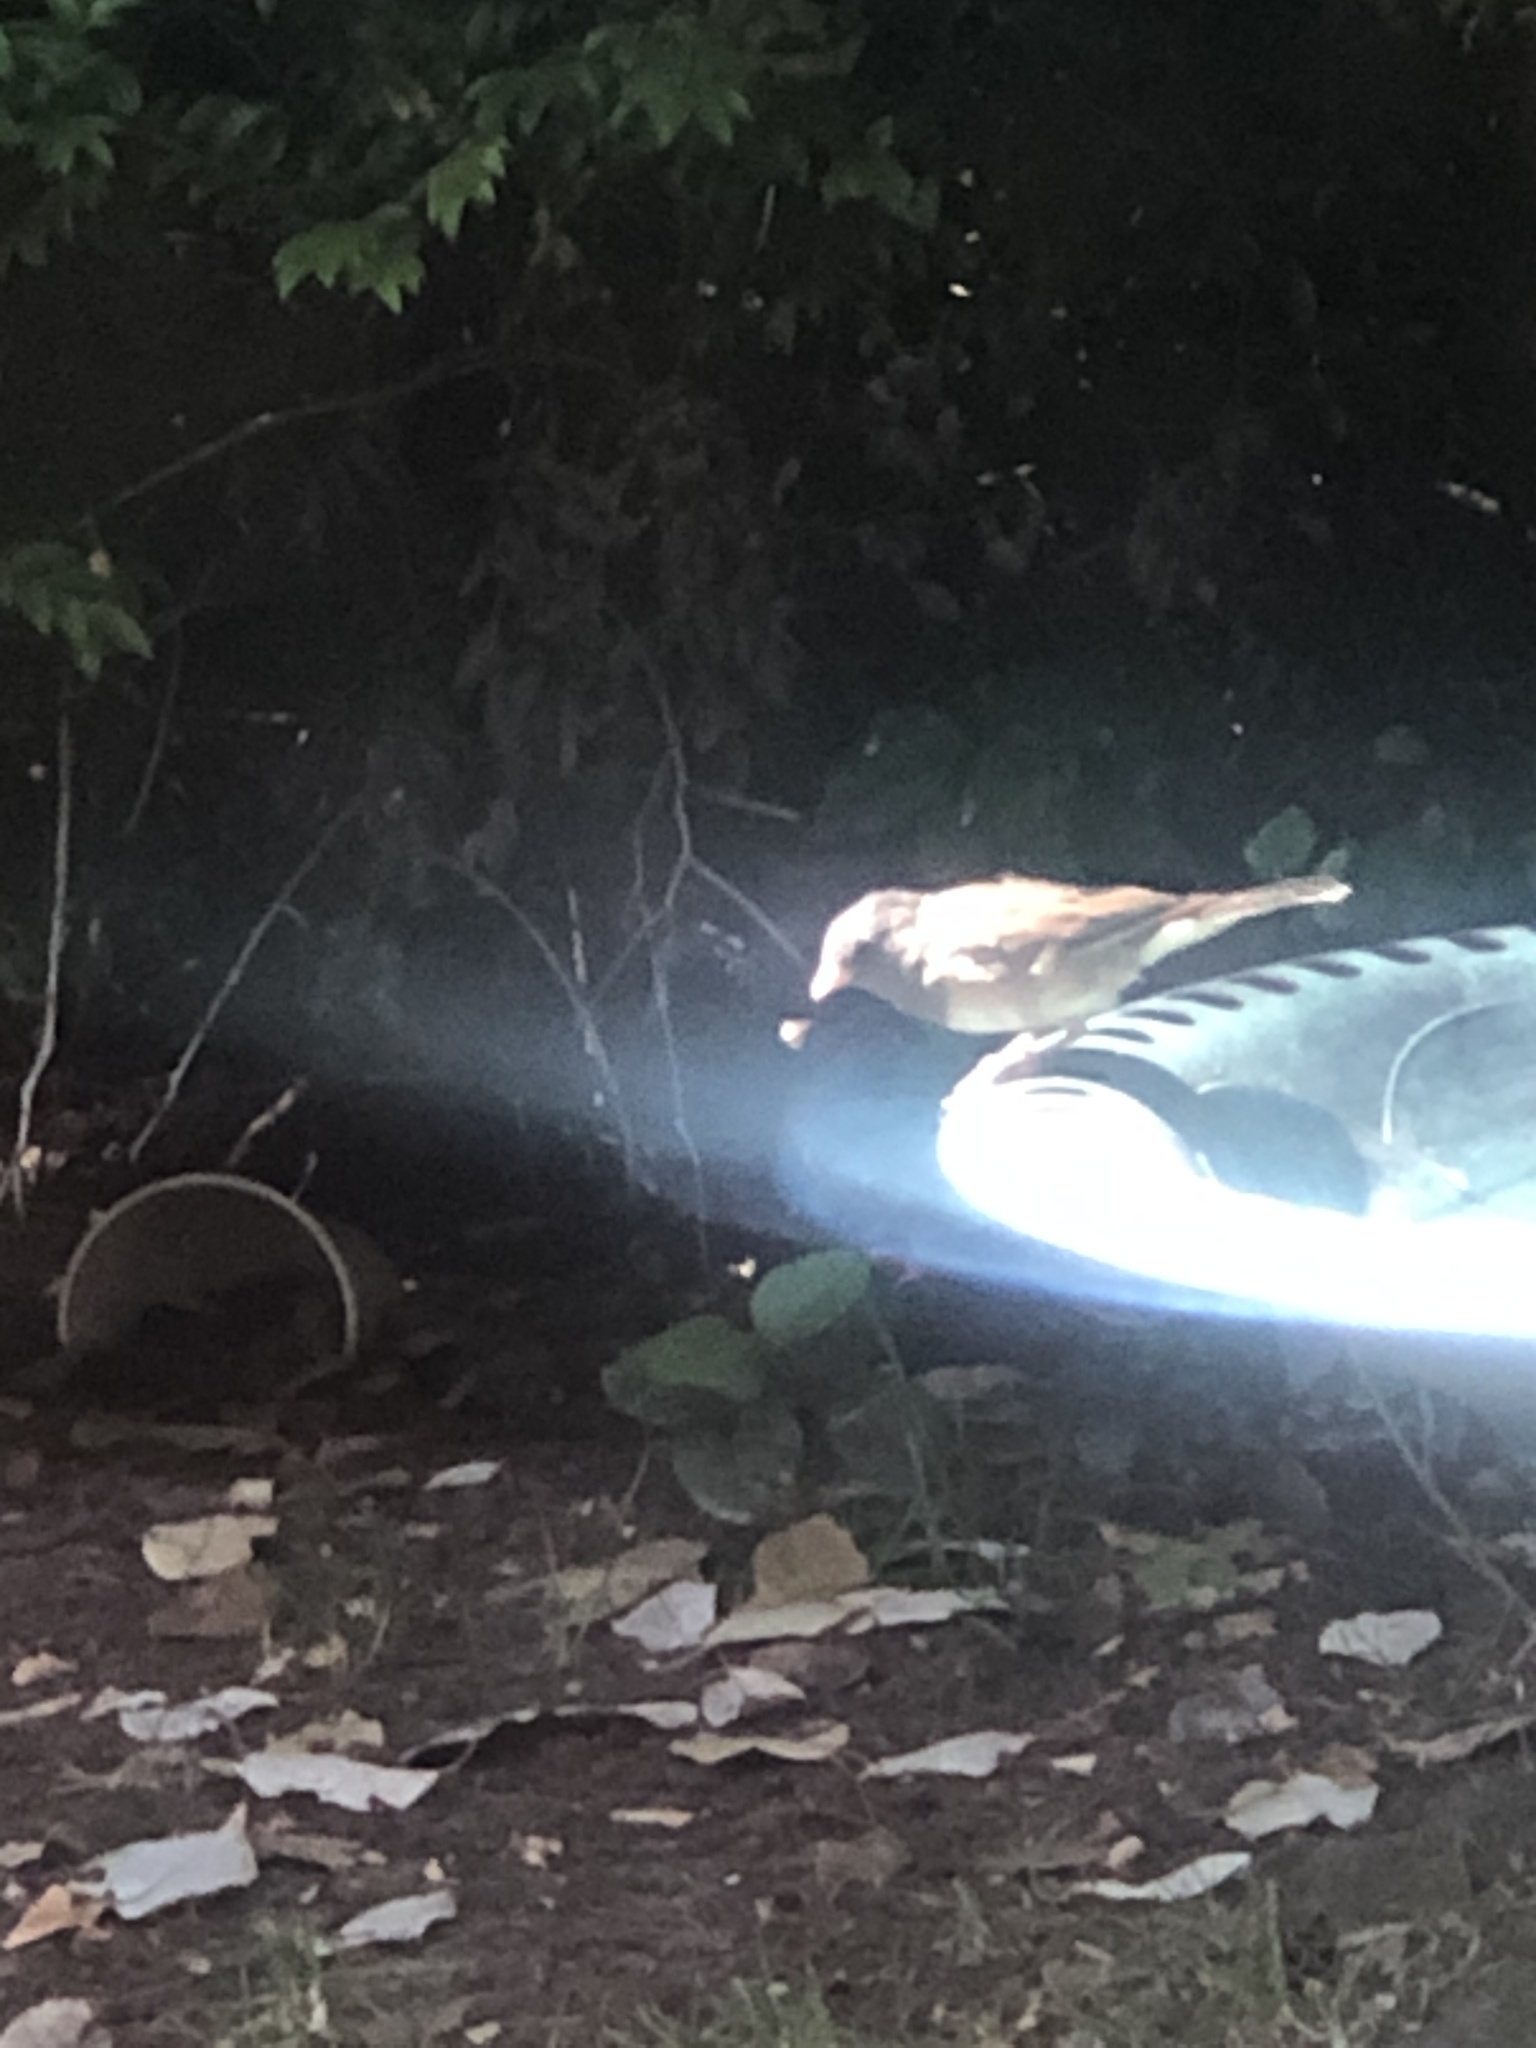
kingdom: Animalia
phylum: Chordata
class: Aves
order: Passeriformes
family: Passerellidae
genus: Junco
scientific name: Junco hyemalis
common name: Dark-eyed junco
